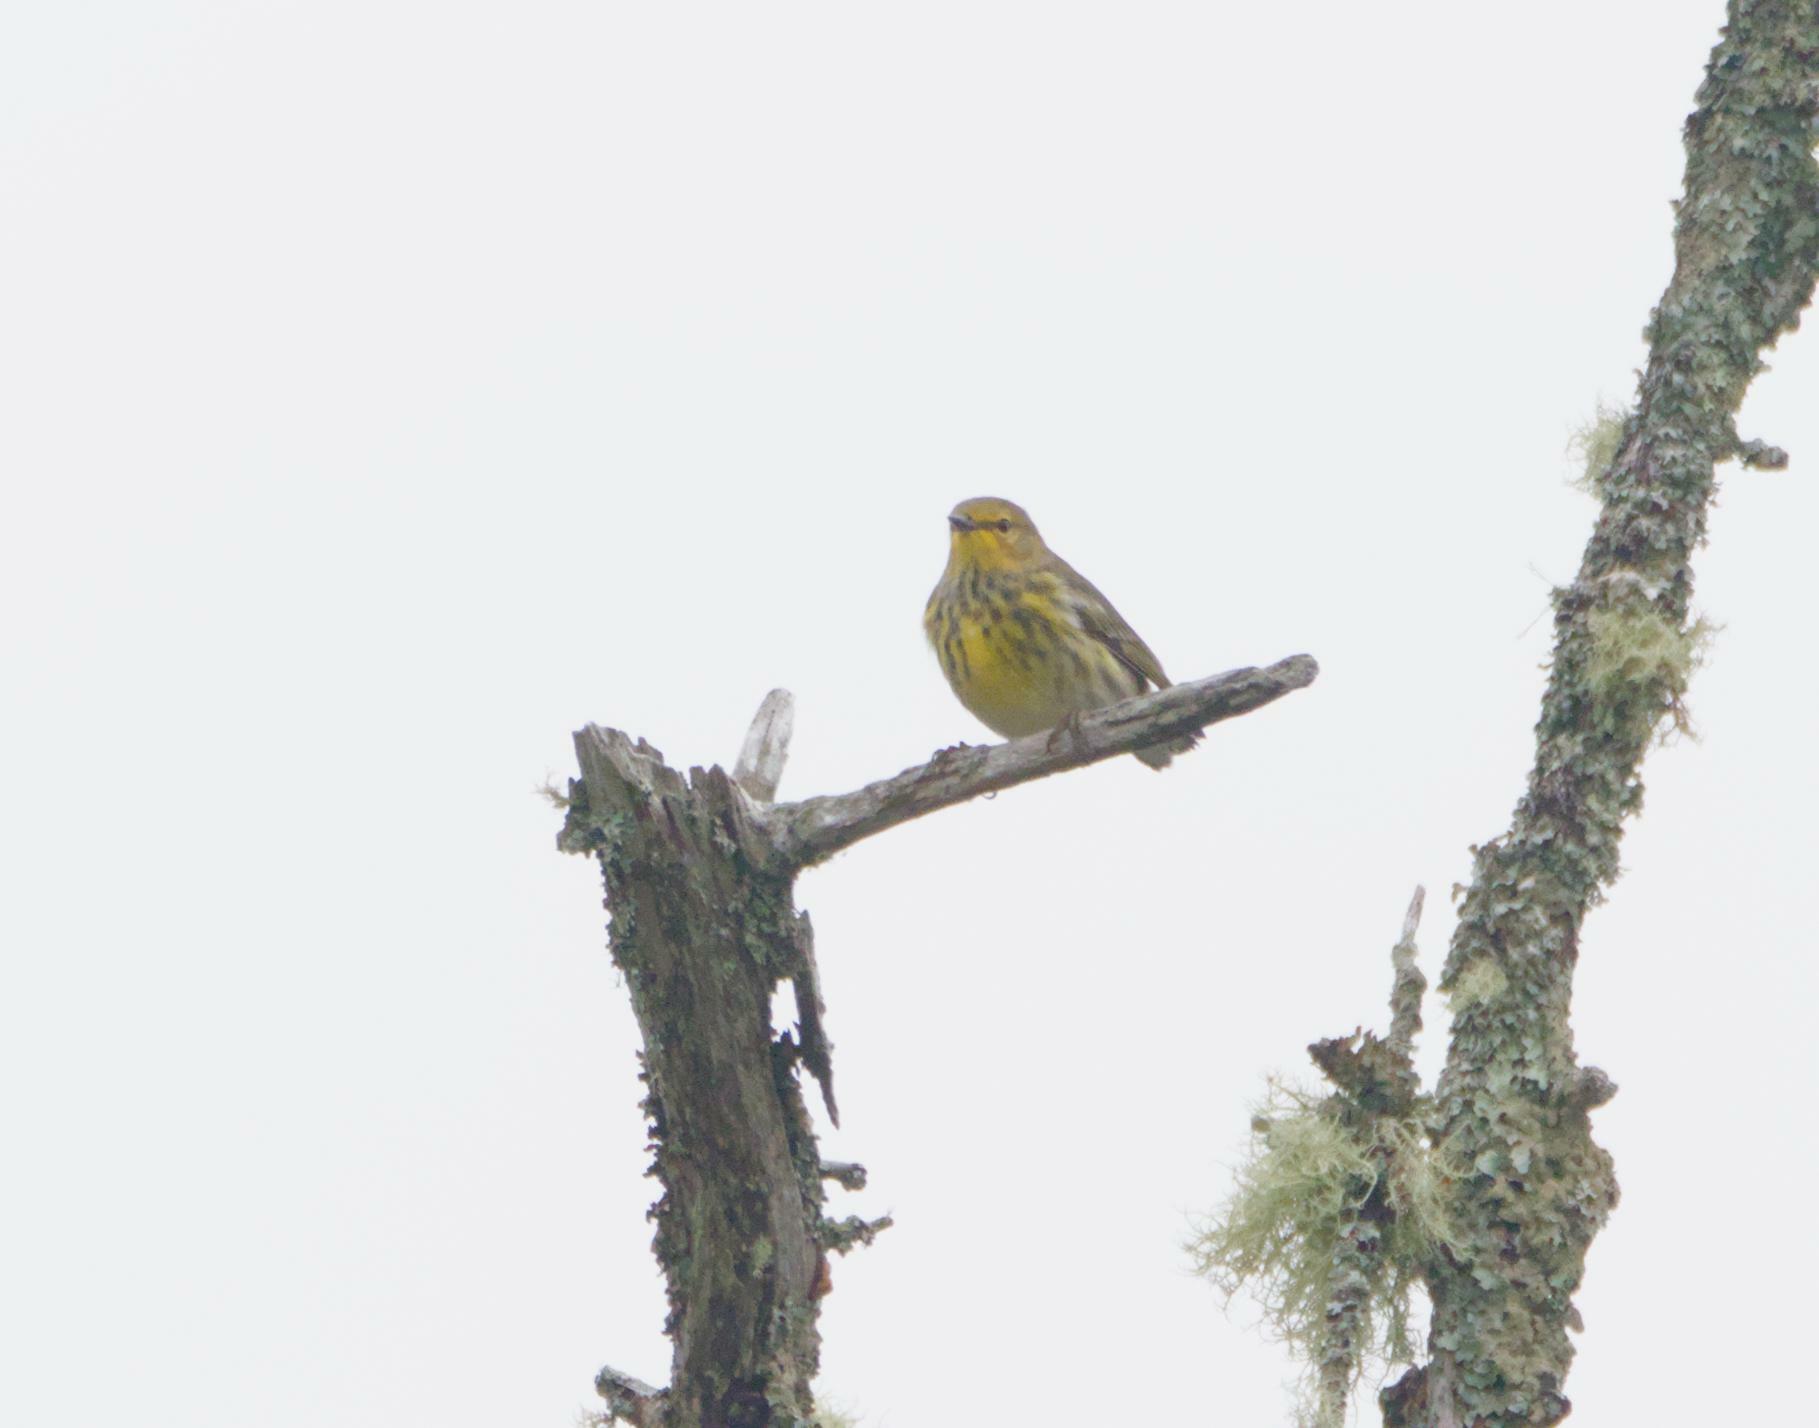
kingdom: Animalia
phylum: Chordata
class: Aves
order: Passeriformes
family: Parulidae
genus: Setophaga
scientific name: Setophaga tigrina
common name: Cape may warbler
